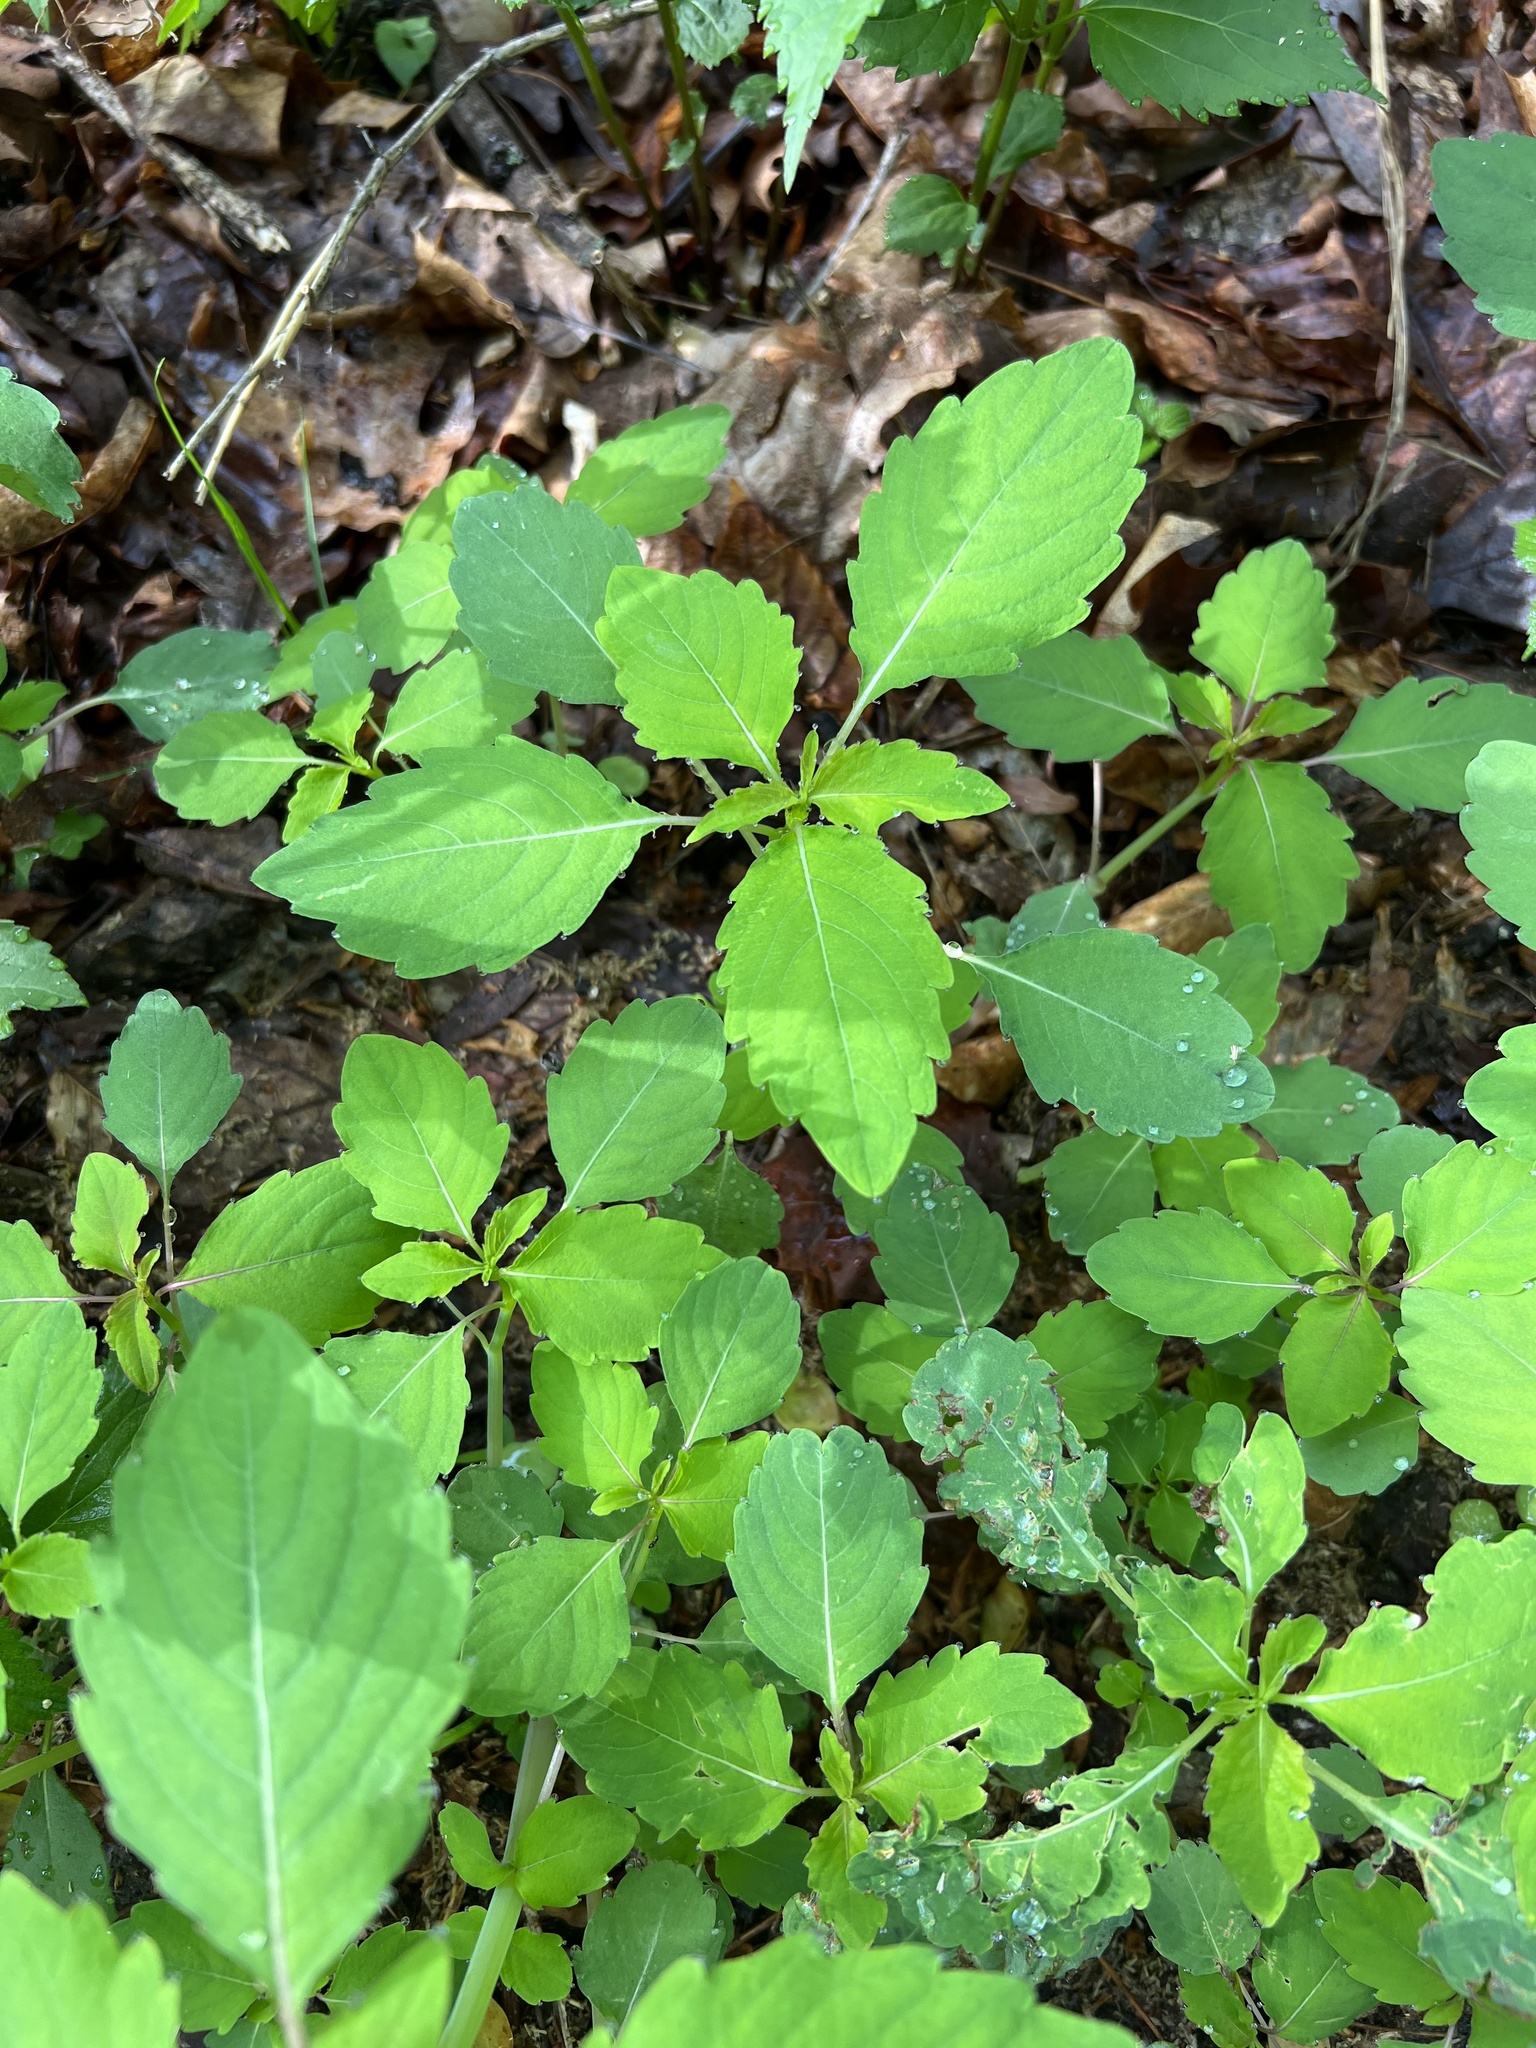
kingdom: Plantae
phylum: Tracheophyta
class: Magnoliopsida
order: Ericales
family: Balsaminaceae
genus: Impatiens
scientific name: Impatiens capensis
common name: Orange balsam
